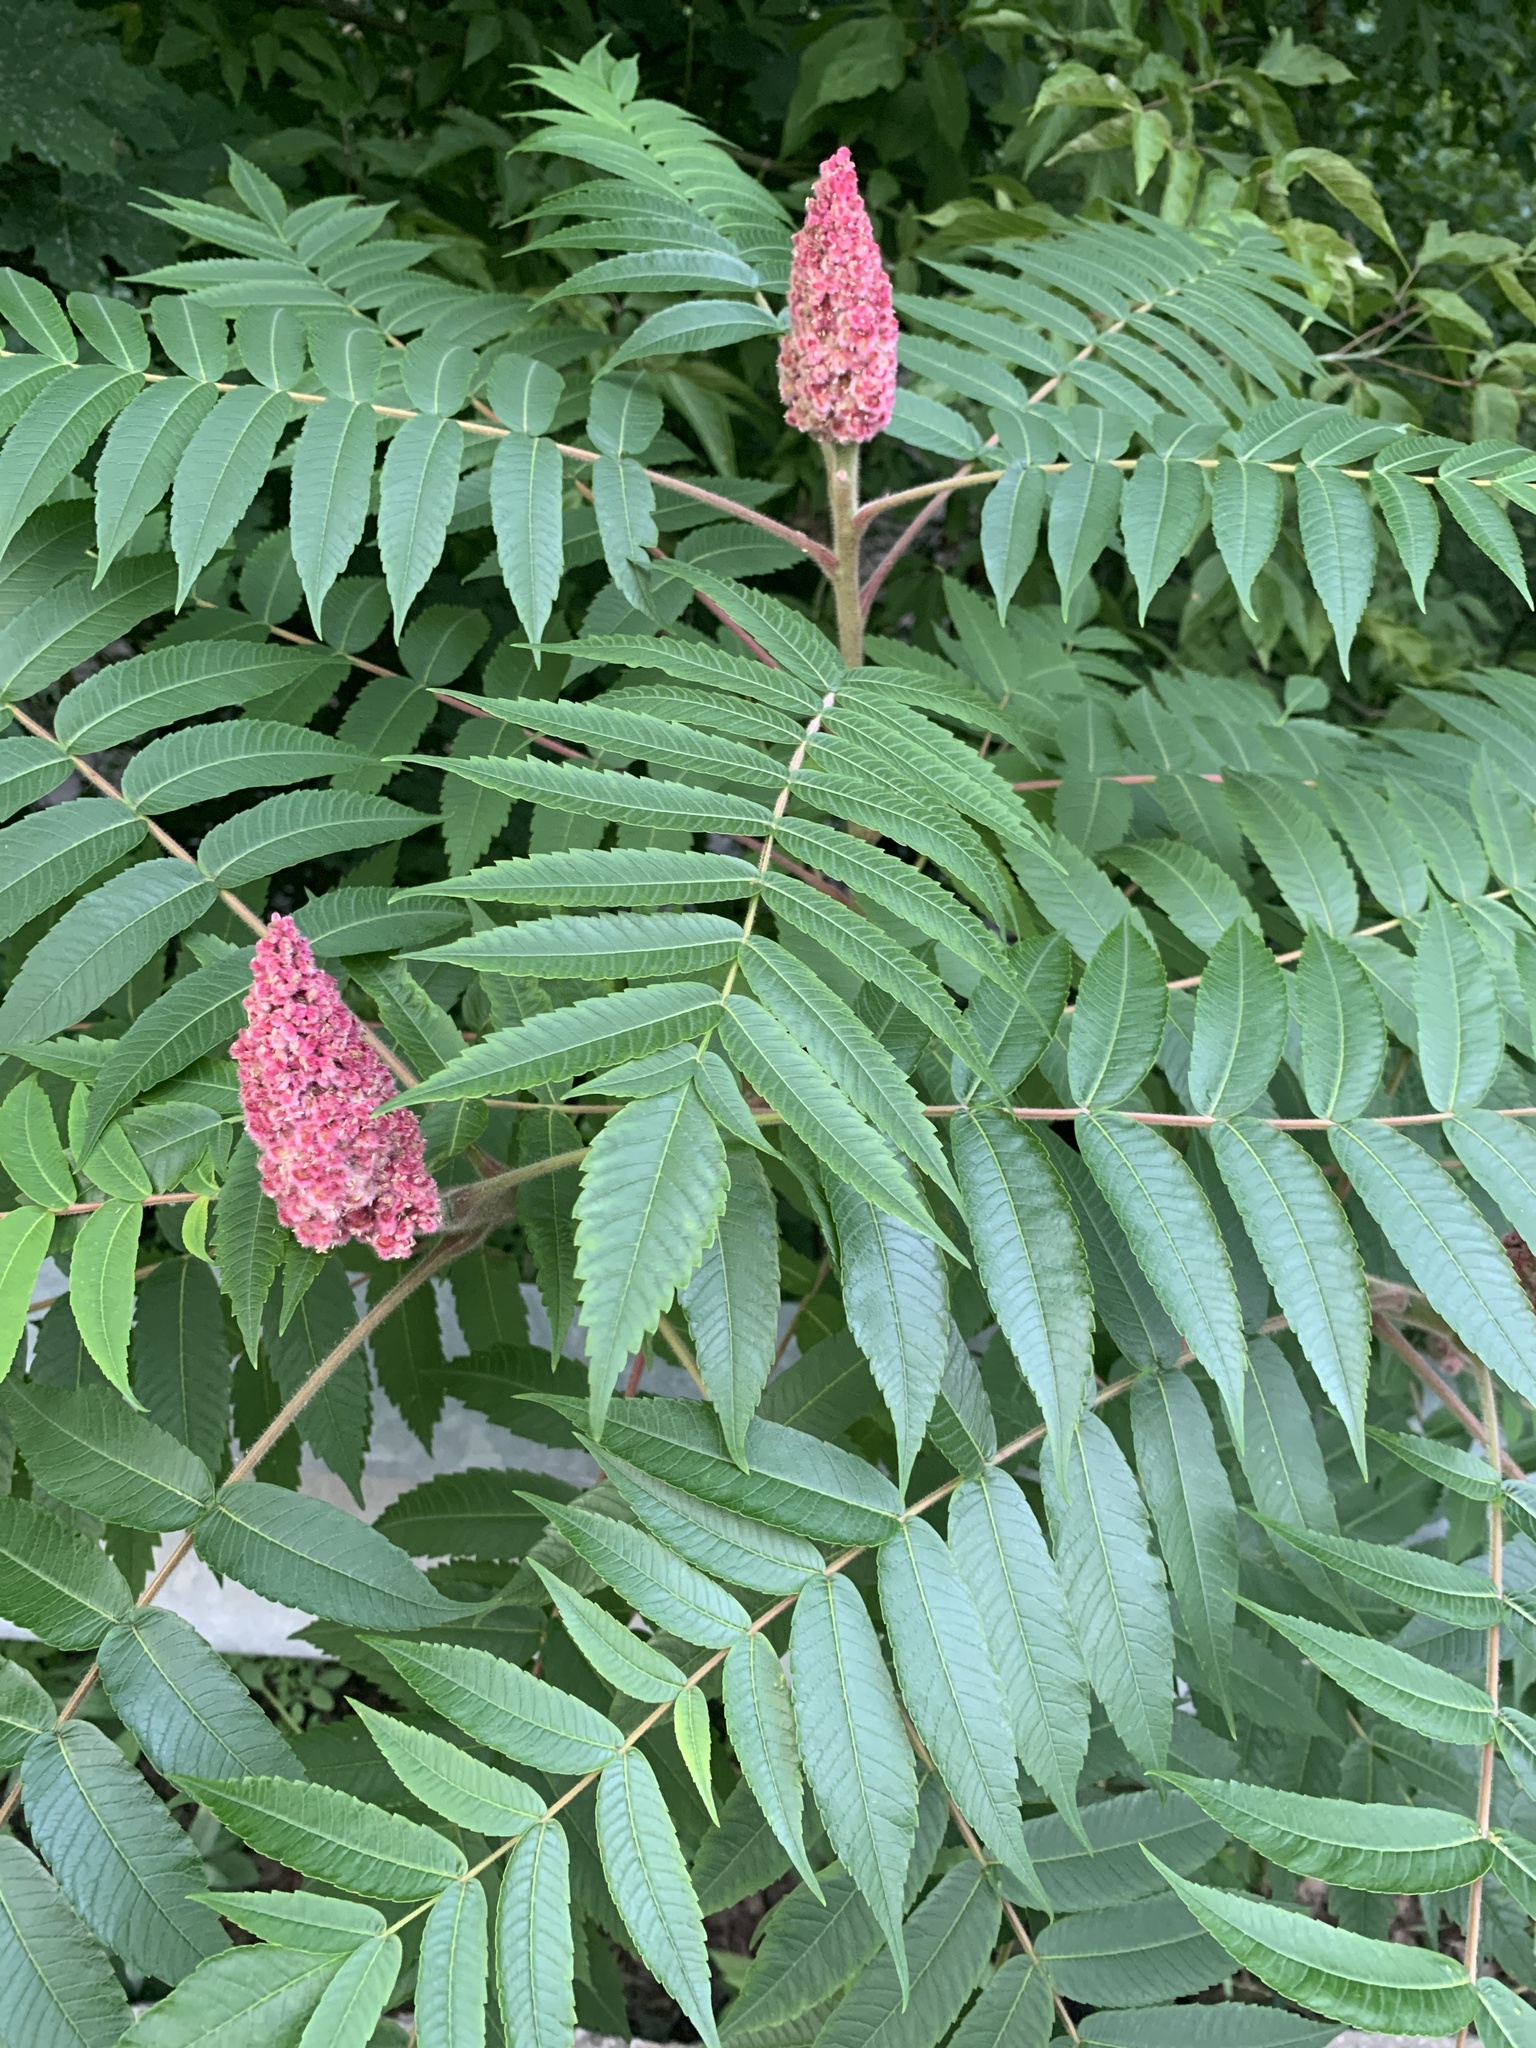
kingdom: Plantae
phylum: Tracheophyta
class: Magnoliopsida
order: Sapindales
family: Anacardiaceae
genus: Rhus
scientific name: Rhus typhina
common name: Staghorn sumac
